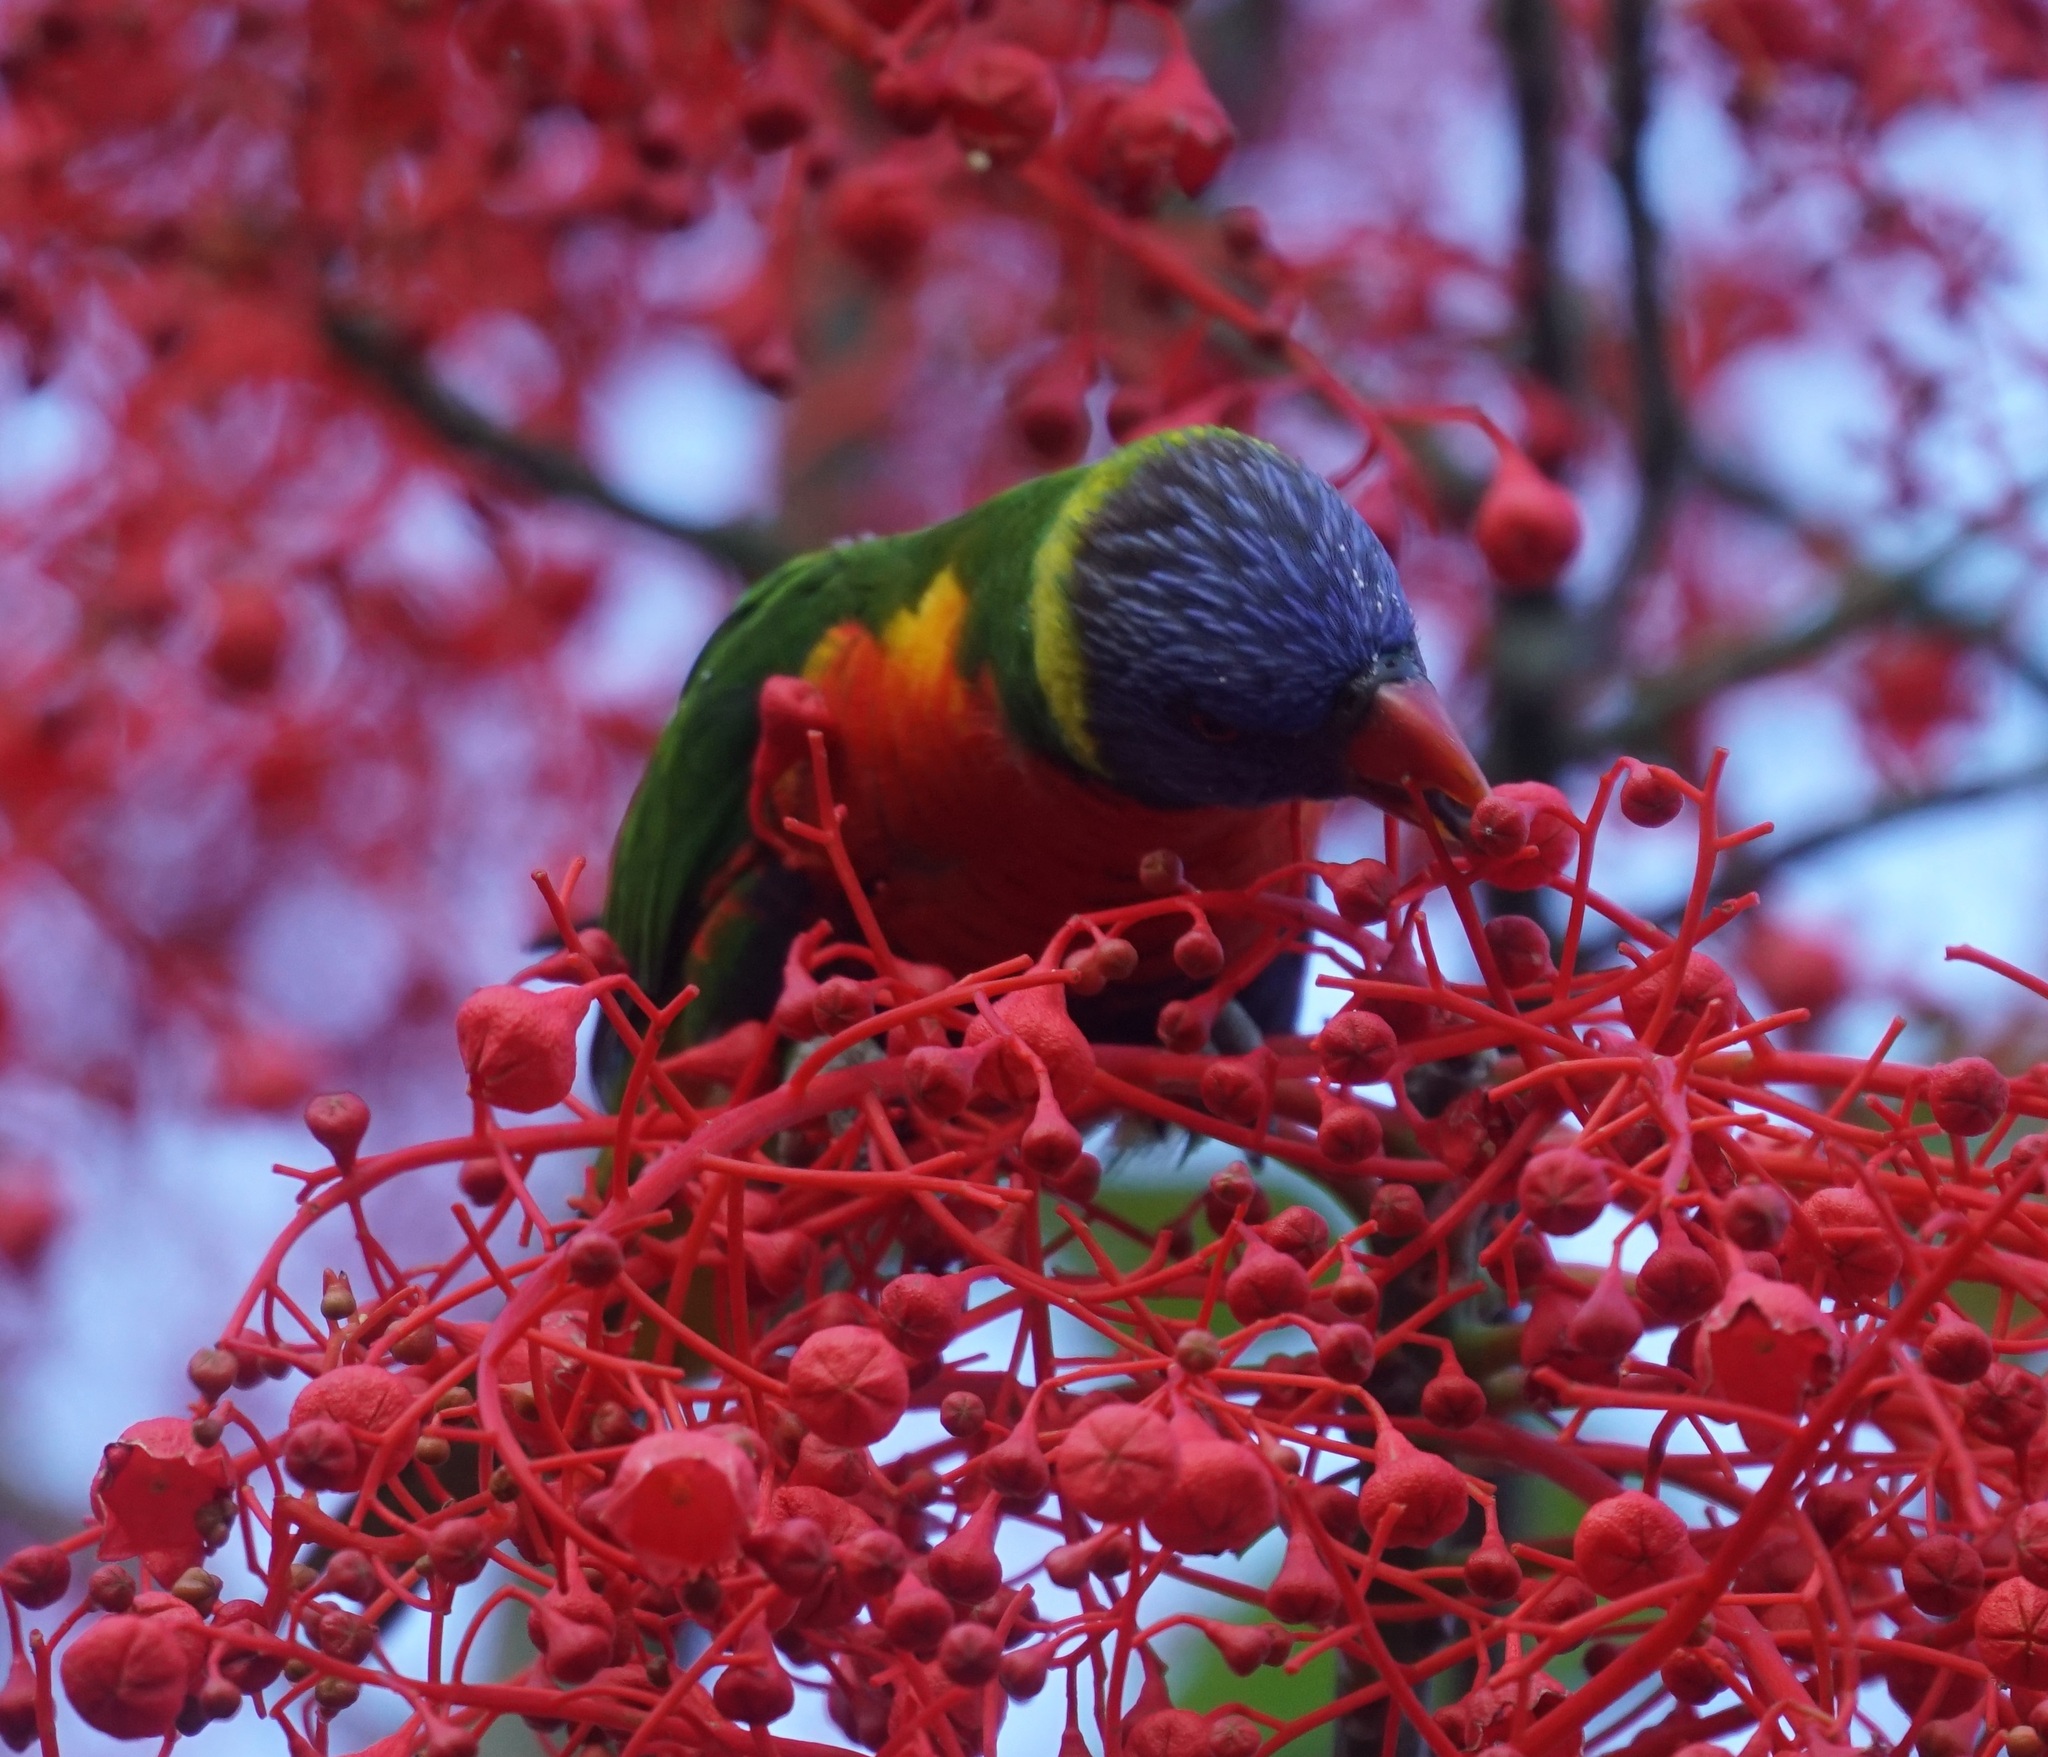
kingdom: Animalia
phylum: Chordata
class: Aves
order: Psittaciformes
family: Psittacidae
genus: Trichoglossus
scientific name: Trichoglossus haematodus
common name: Coconut lorikeet
